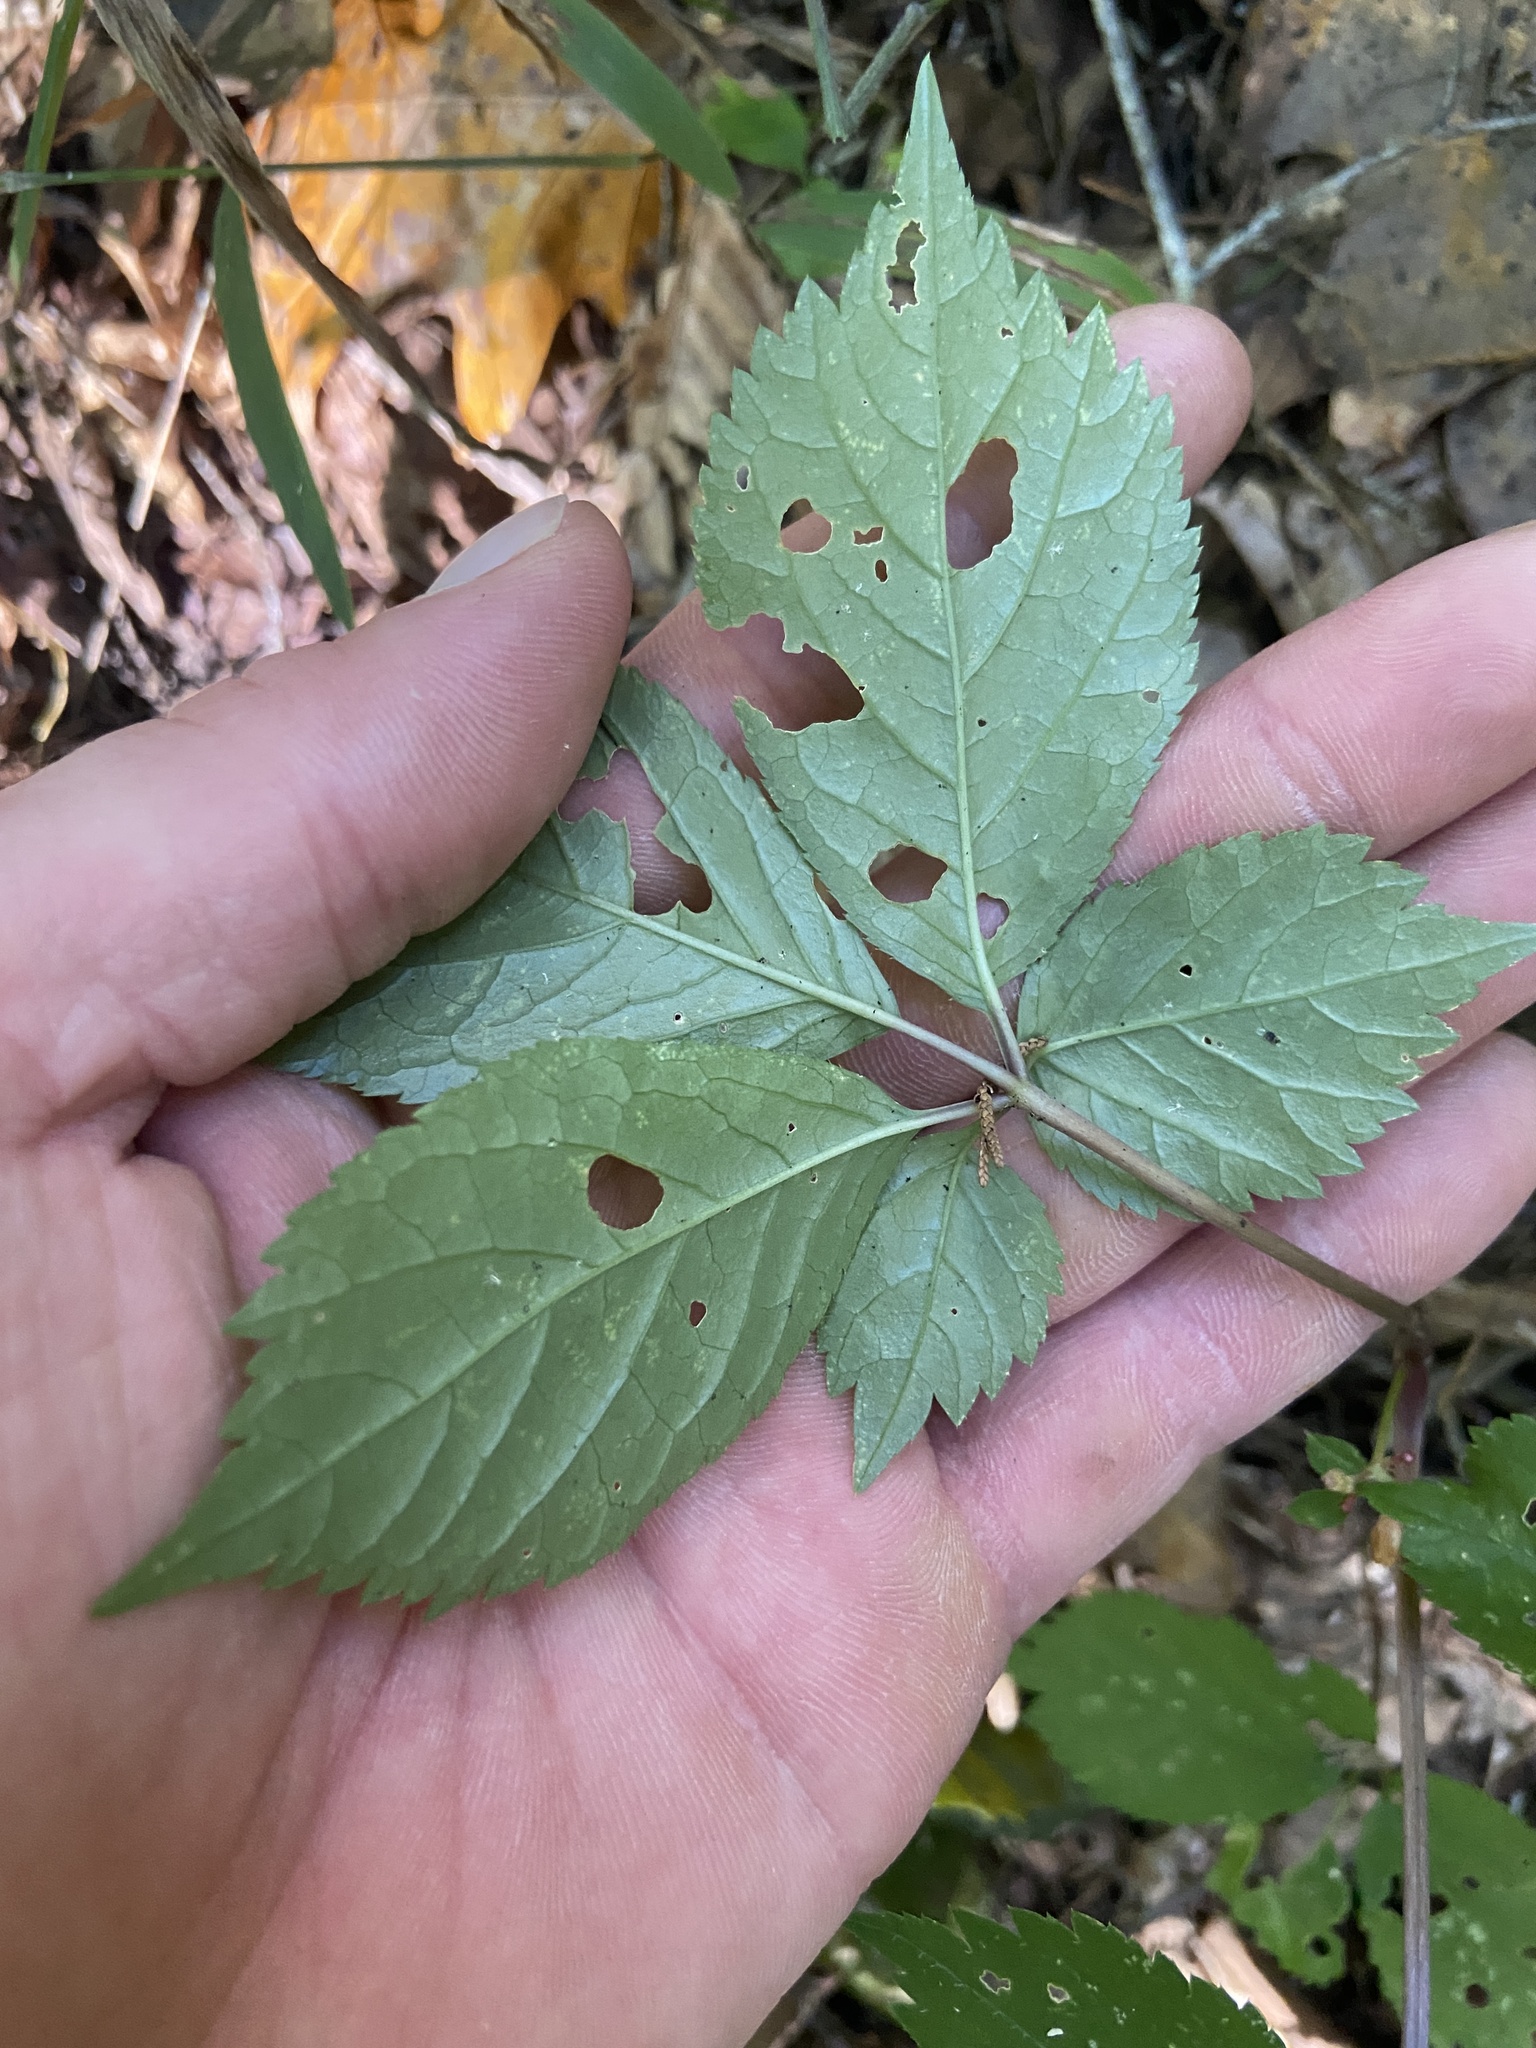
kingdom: Plantae
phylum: Tracheophyta
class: Magnoliopsida
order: Apiales
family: Araliaceae
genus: Panax
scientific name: Panax quinquefolius
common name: American ginseng
